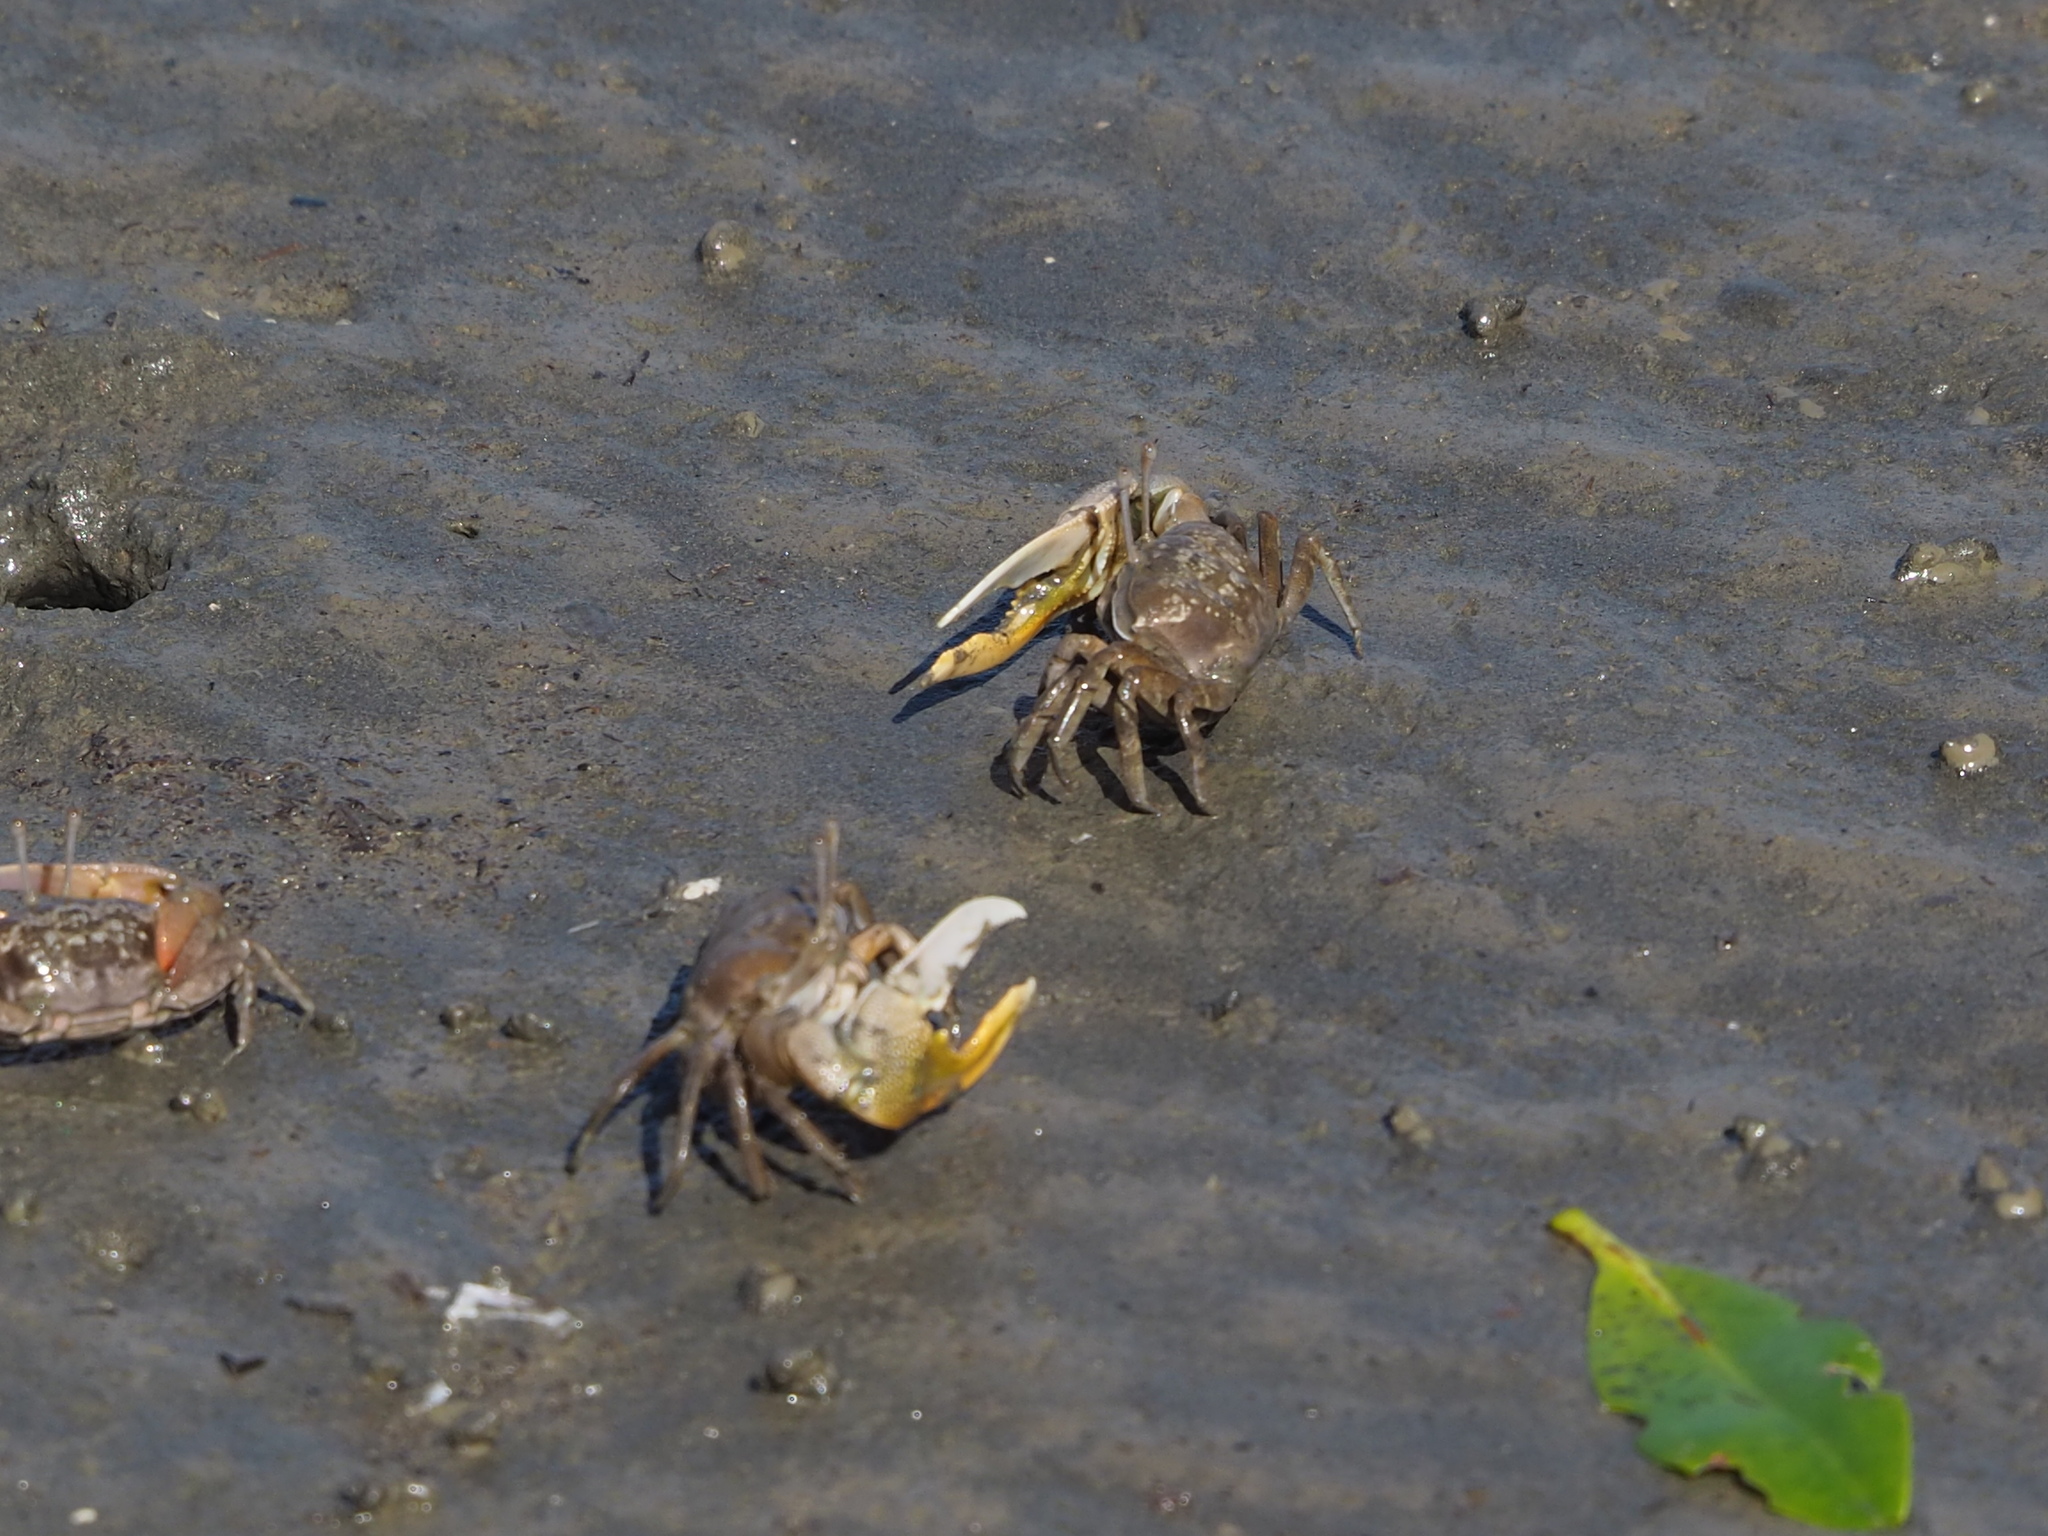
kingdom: Animalia
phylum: Arthropoda
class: Malacostraca
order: Decapoda
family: Ocypodidae
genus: Gelasimus
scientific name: Gelasimus borealis
